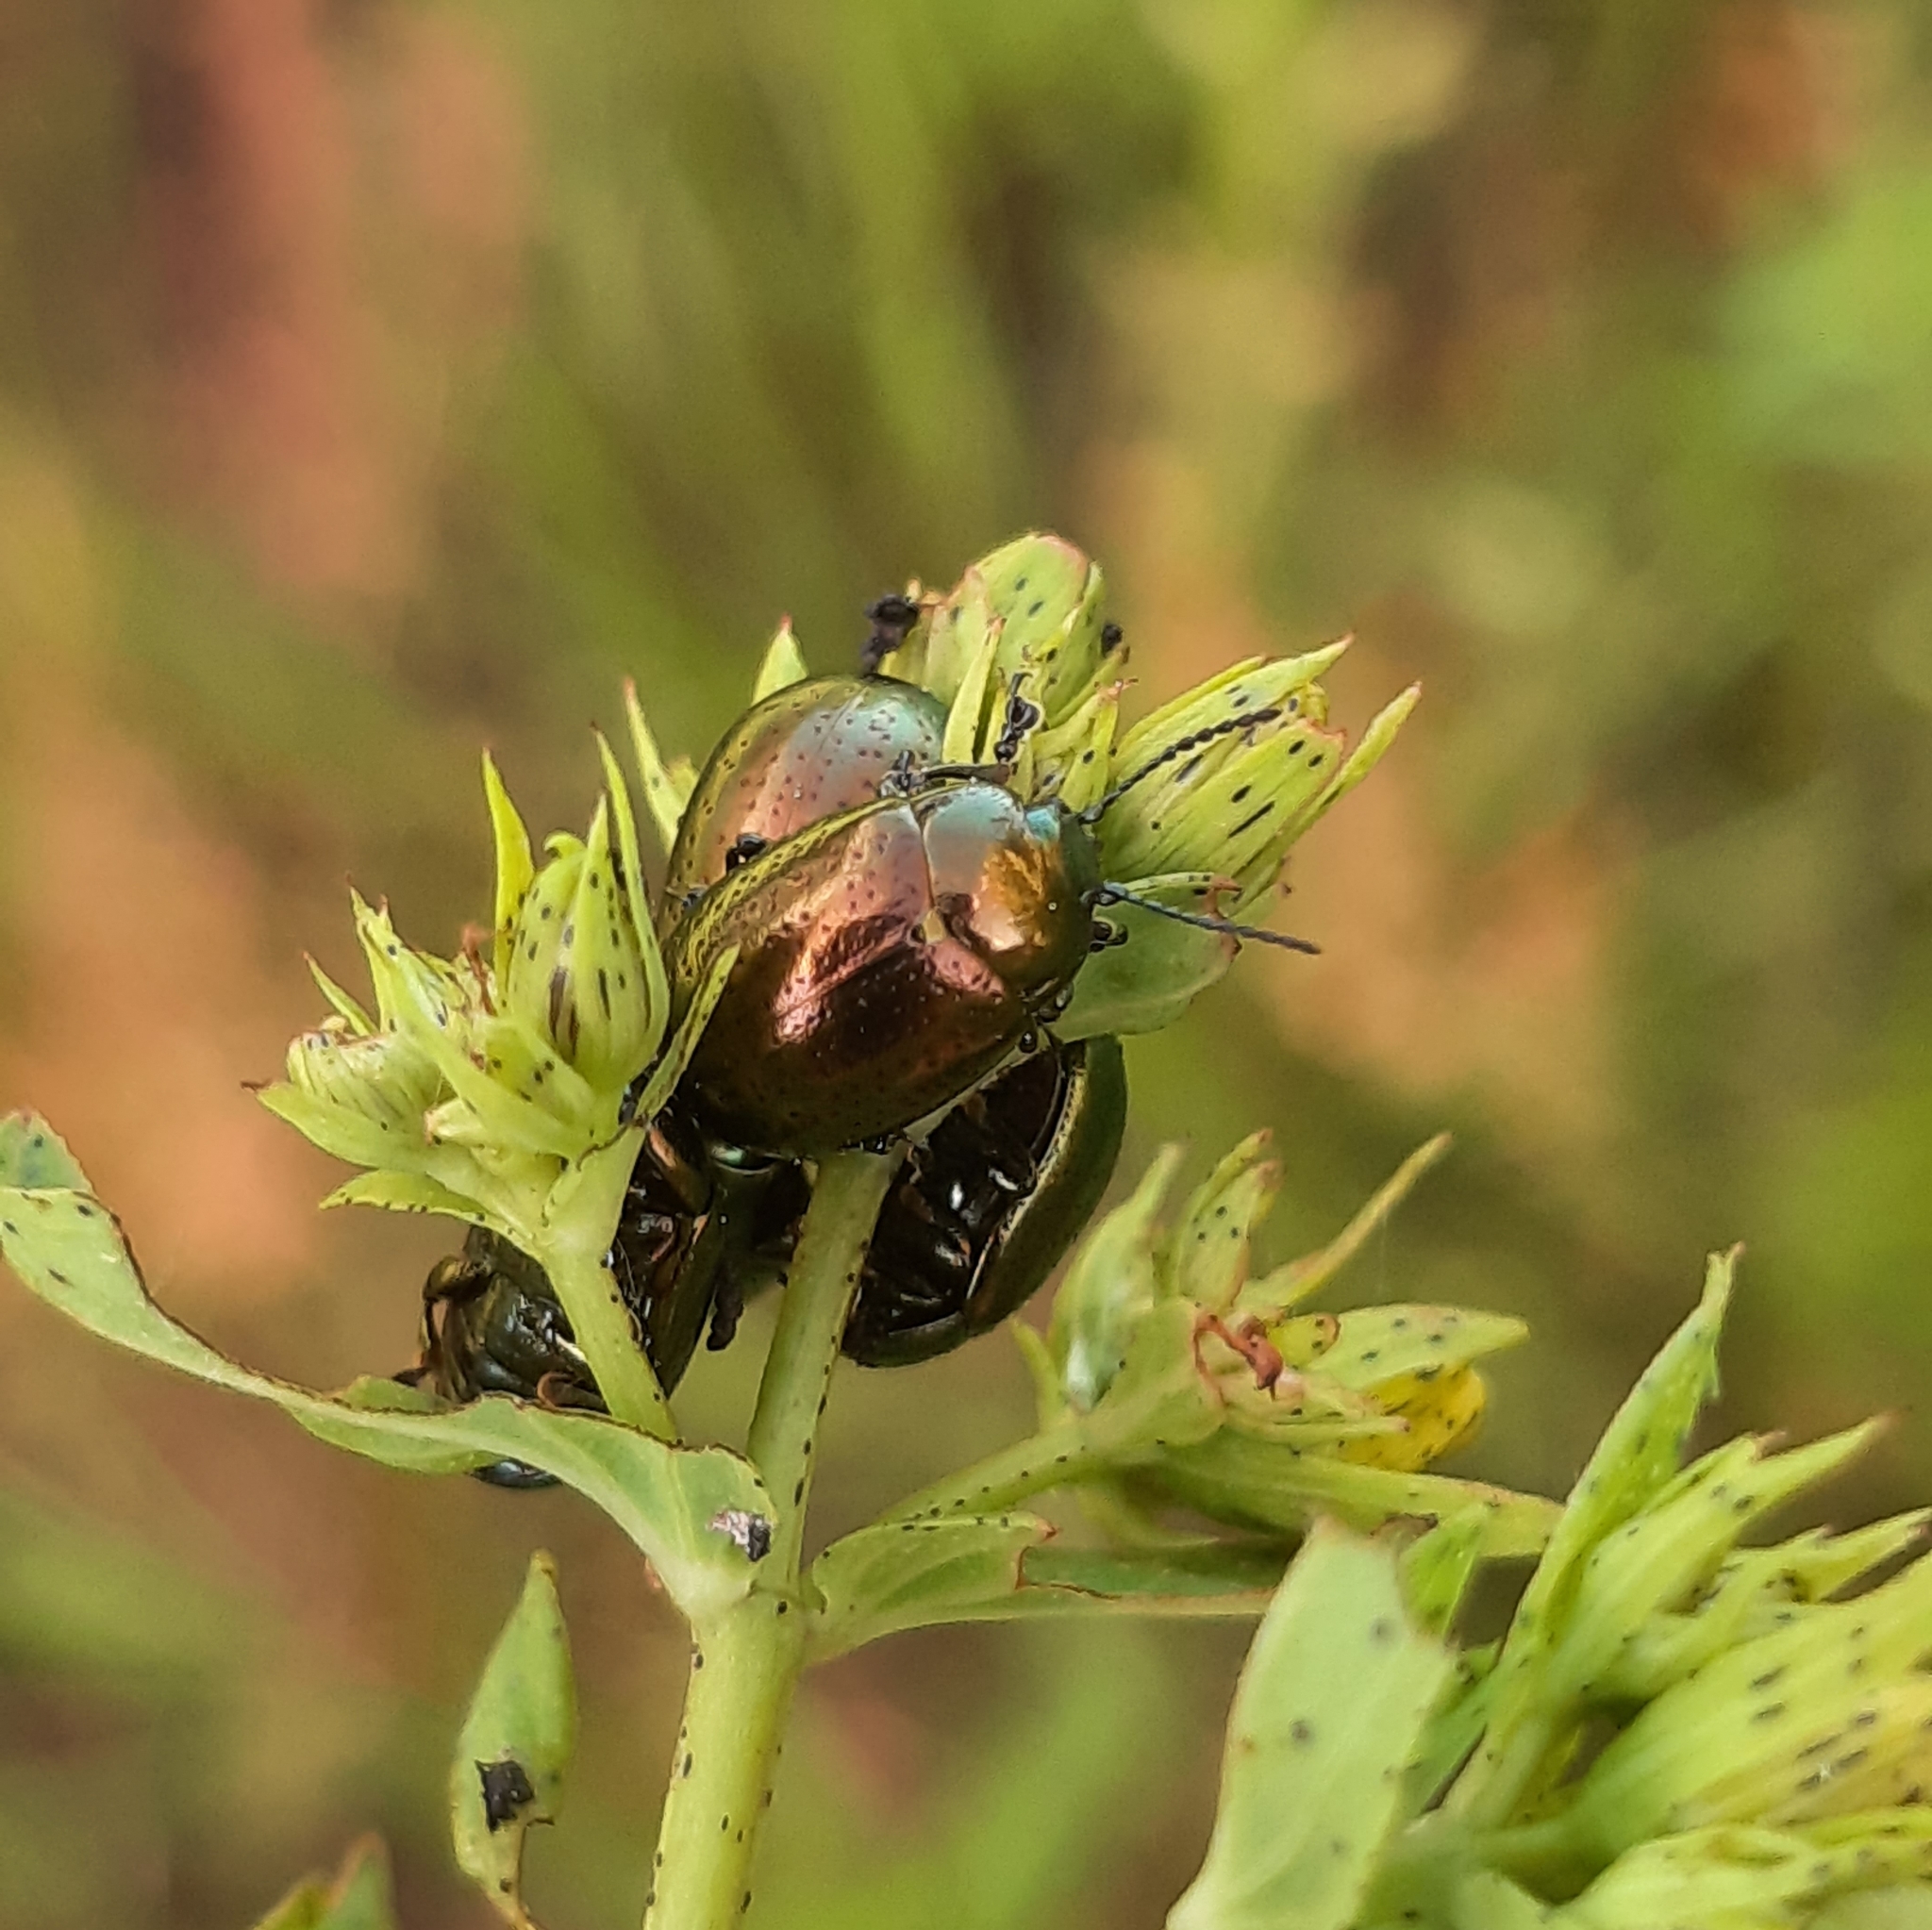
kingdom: Animalia
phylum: Arthropoda
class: Insecta
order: Coleoptera
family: Chrysomelidae
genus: Chrysolina
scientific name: Chrysolina hyperici
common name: St. johnswort beetle
